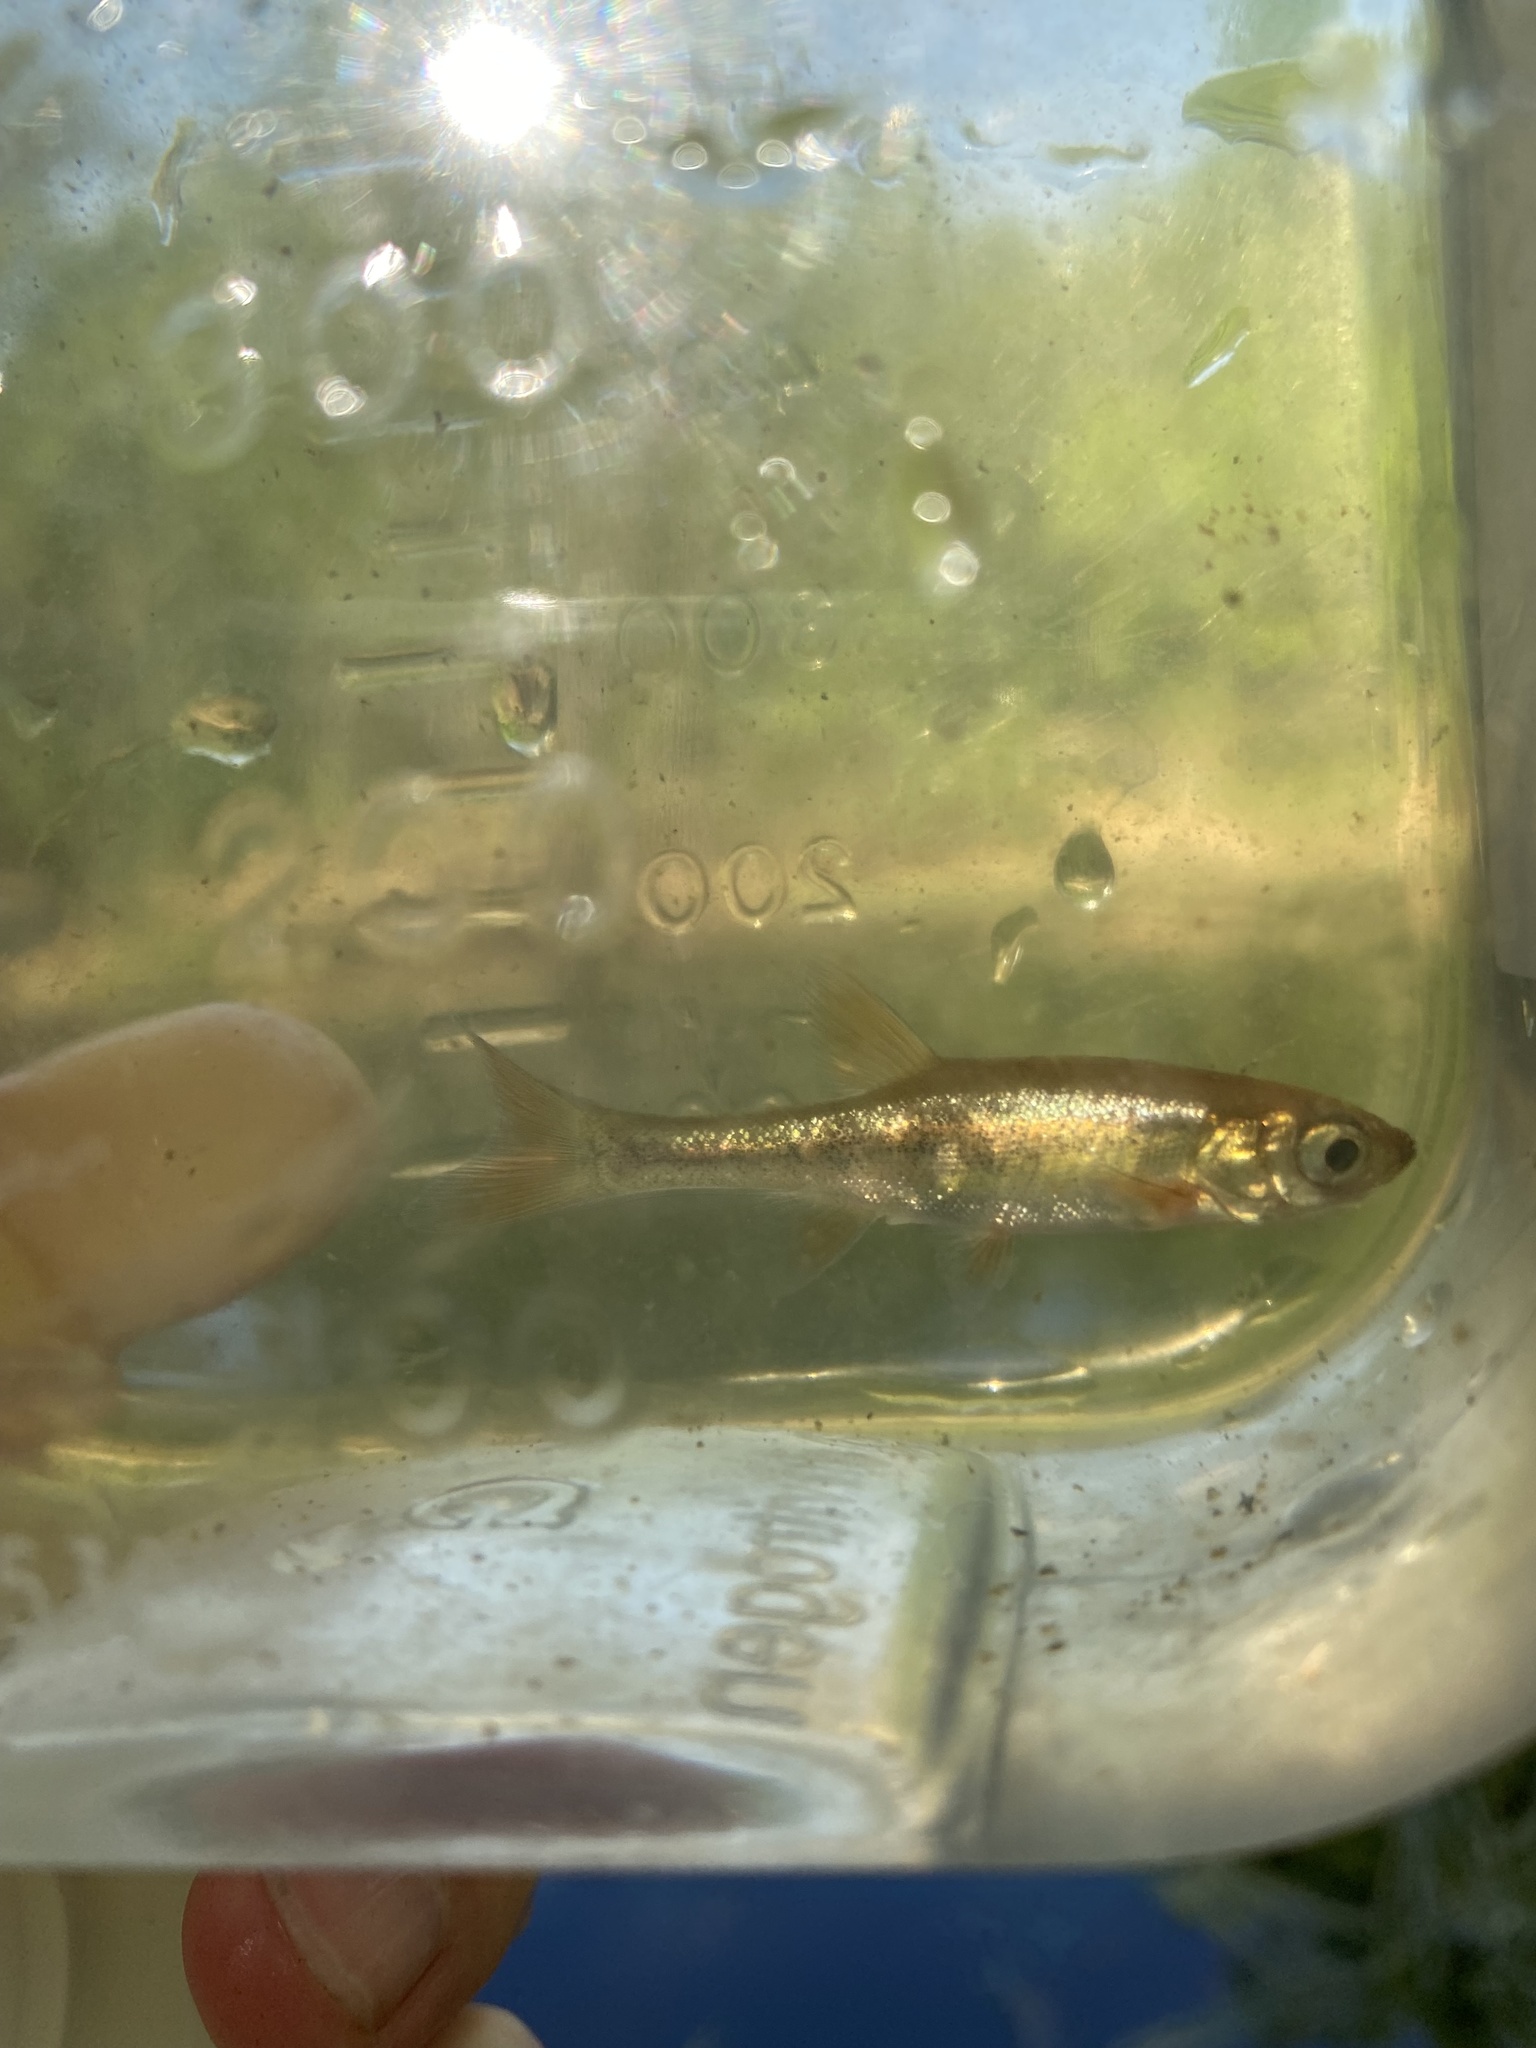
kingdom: Animalia
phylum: Chordata
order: Cypriniformes
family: Cyprinidae
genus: Rhynchocypris
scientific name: Rhynchocypris percnurus
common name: Swamp minnow
